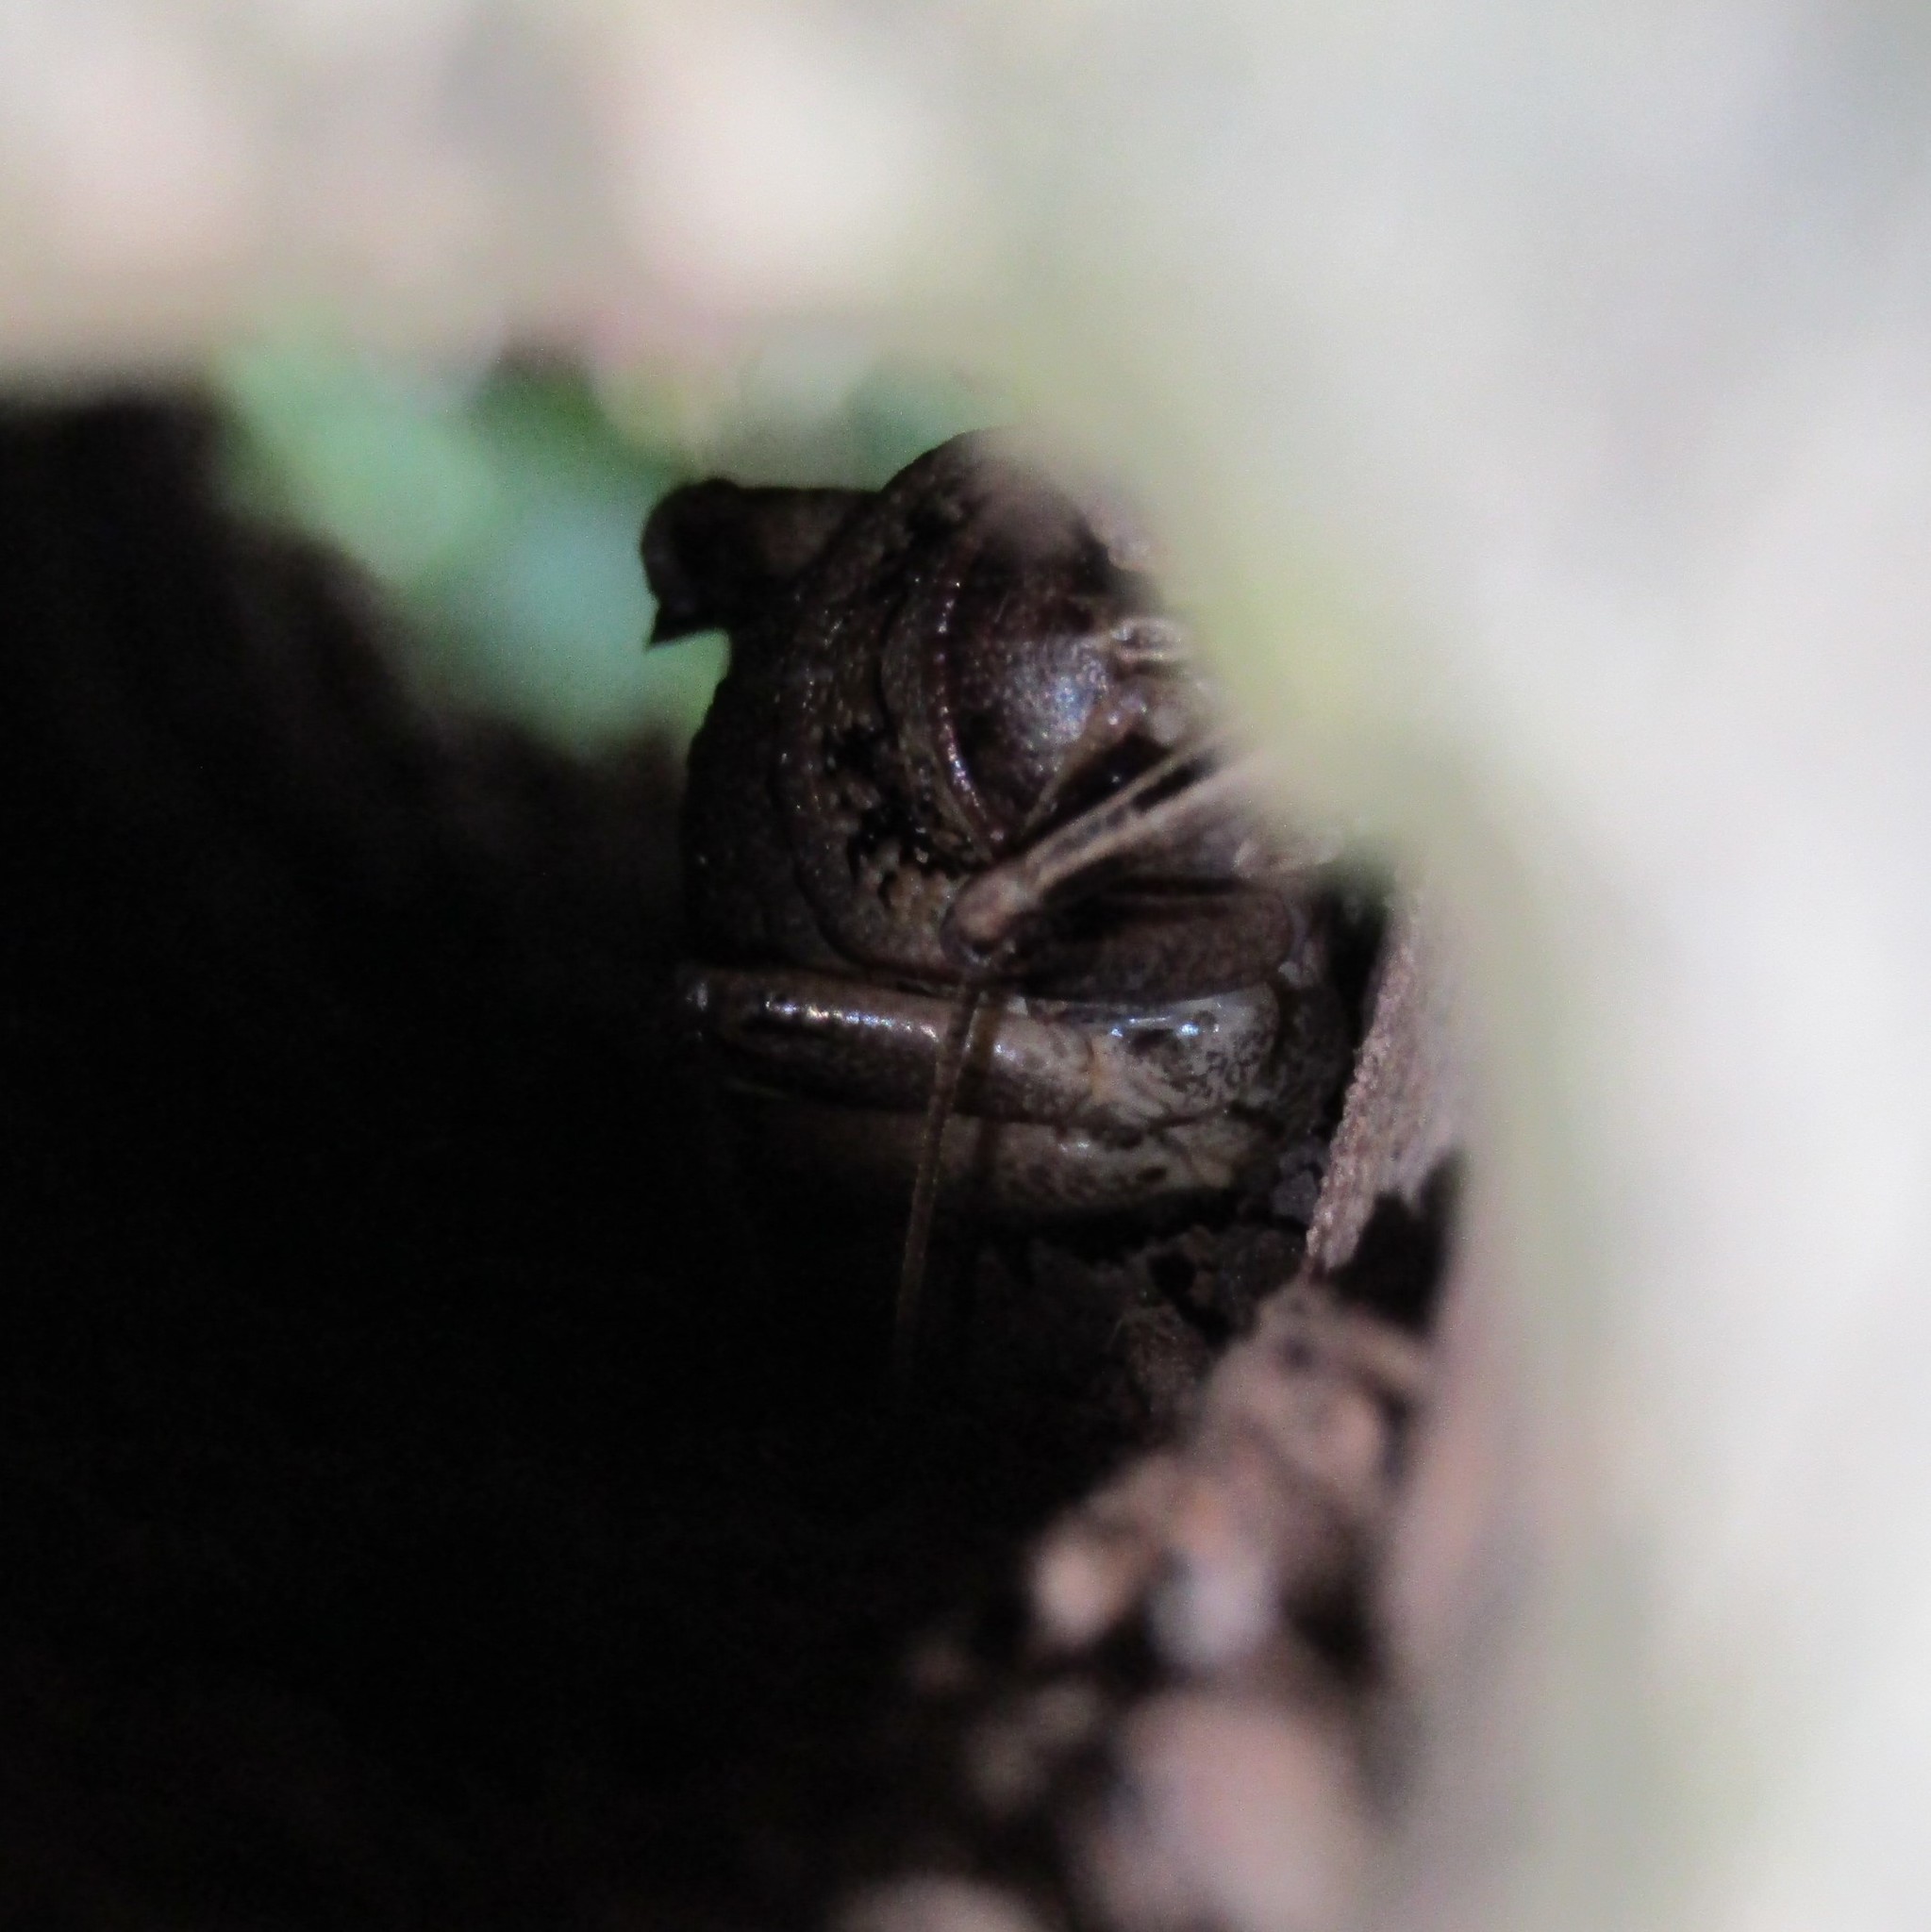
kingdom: Animalia
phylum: Arthropoda
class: Insecta
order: Orthoptera
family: Anostostomatidae
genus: Deinacrida
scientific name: Deinacrida rugosa
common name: Stephens island weta
